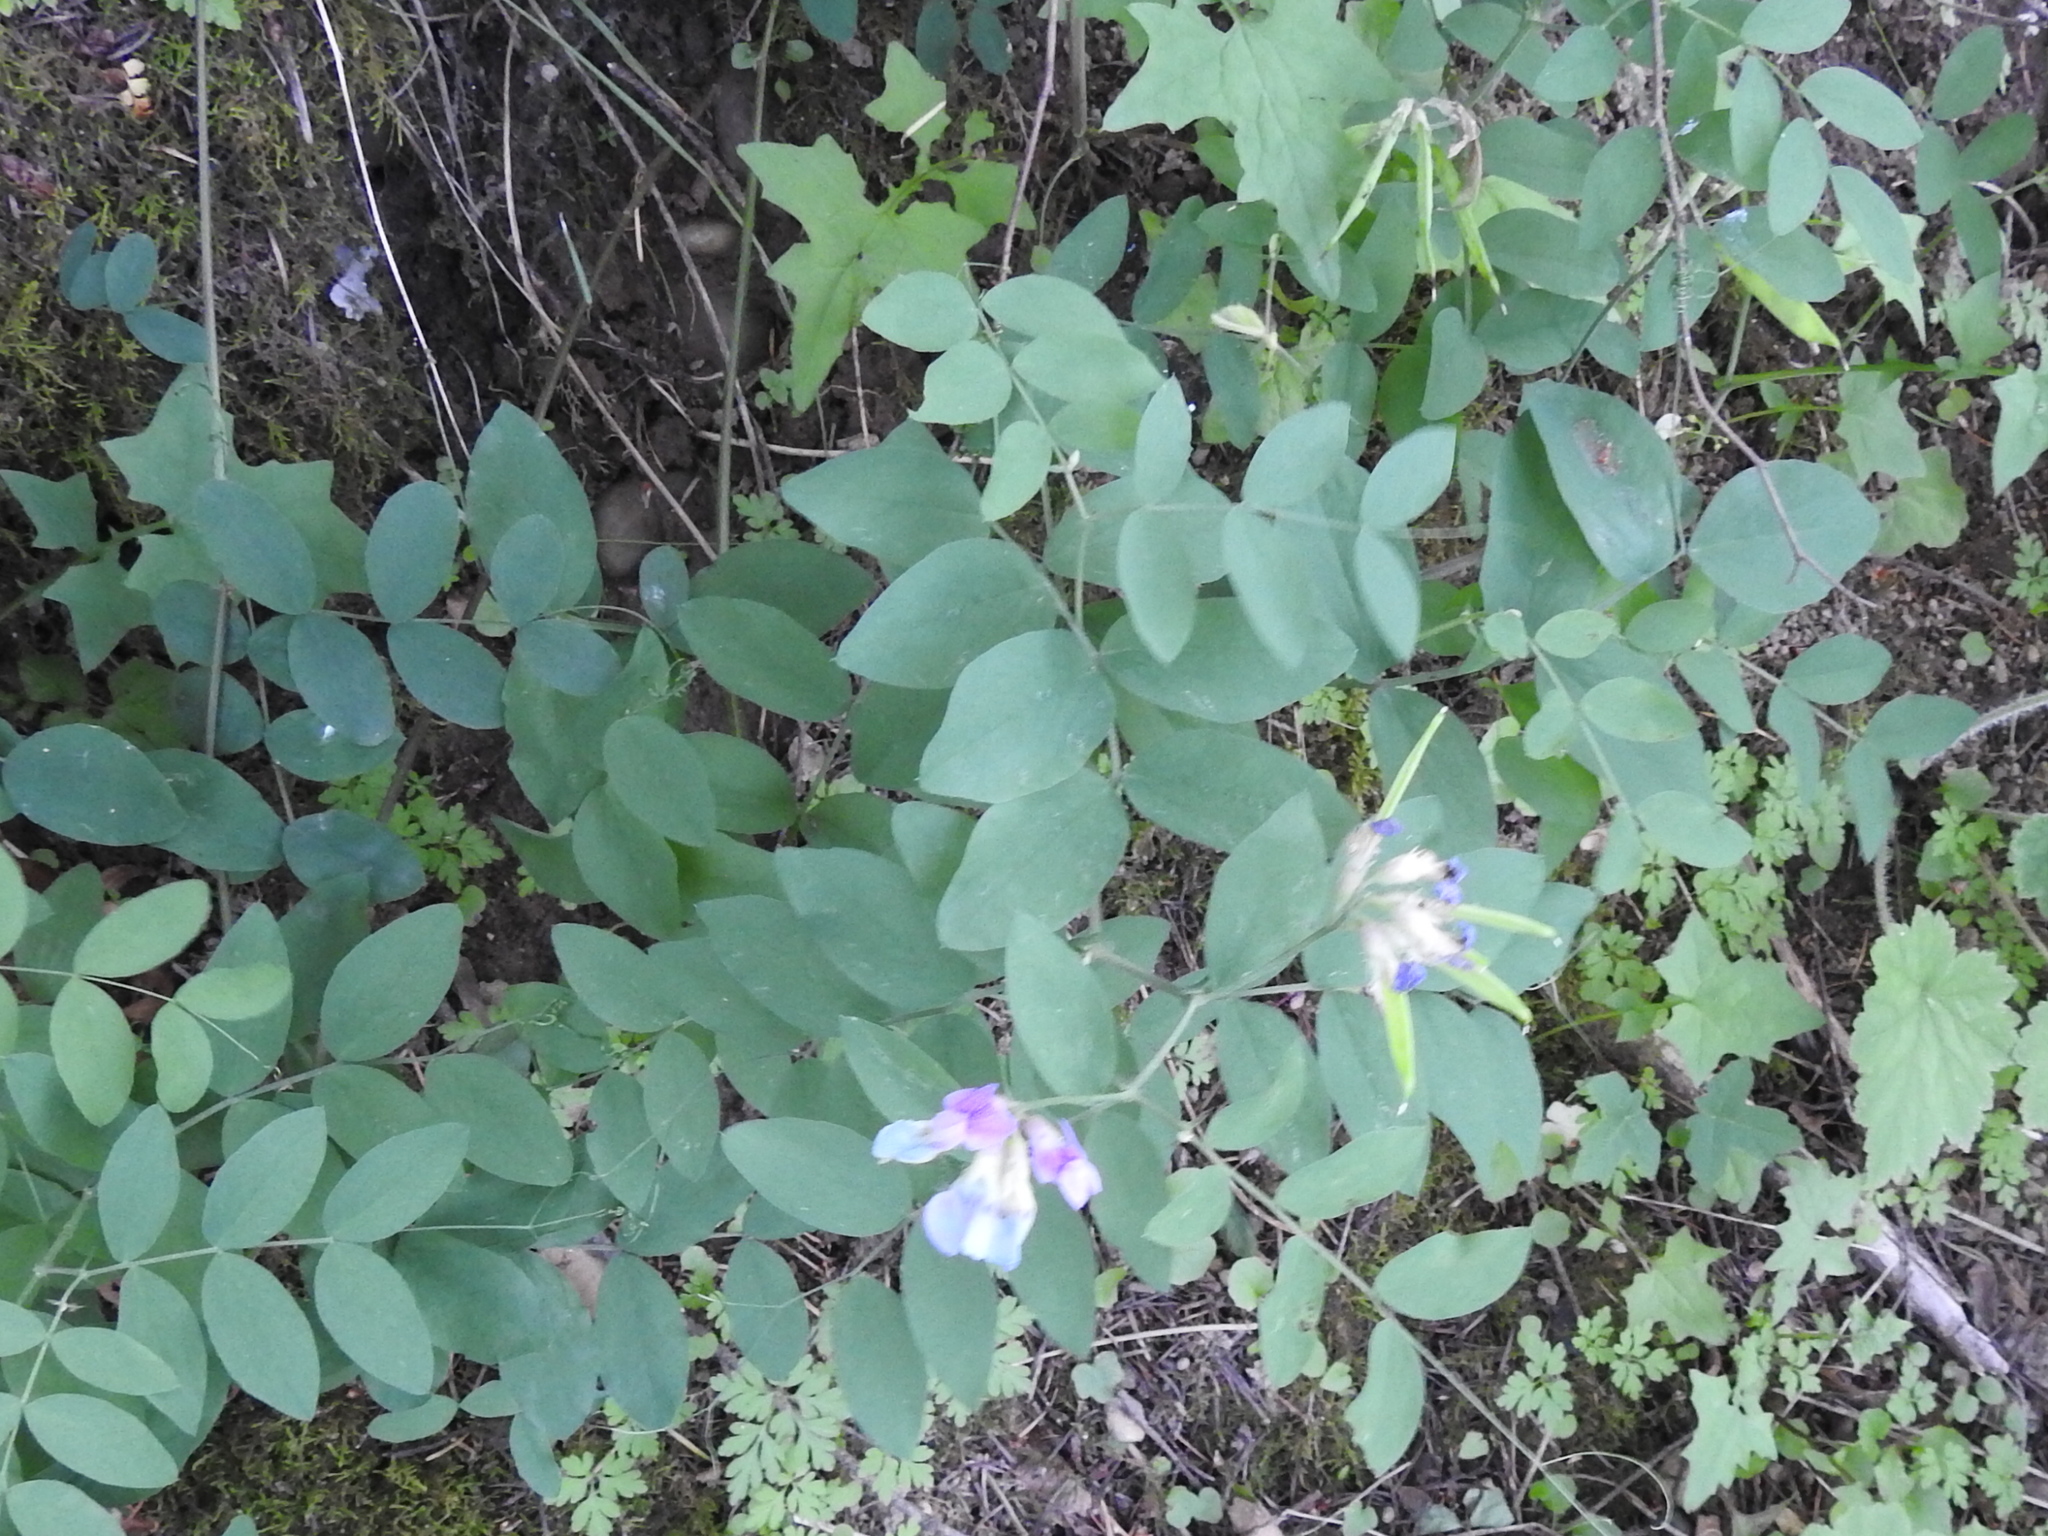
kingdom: Plantae
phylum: Tracheophyta
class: Magnoliopsida
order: Fabales
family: Fabaceae
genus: Lathyrus
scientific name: Lathyrus polyphyllus
